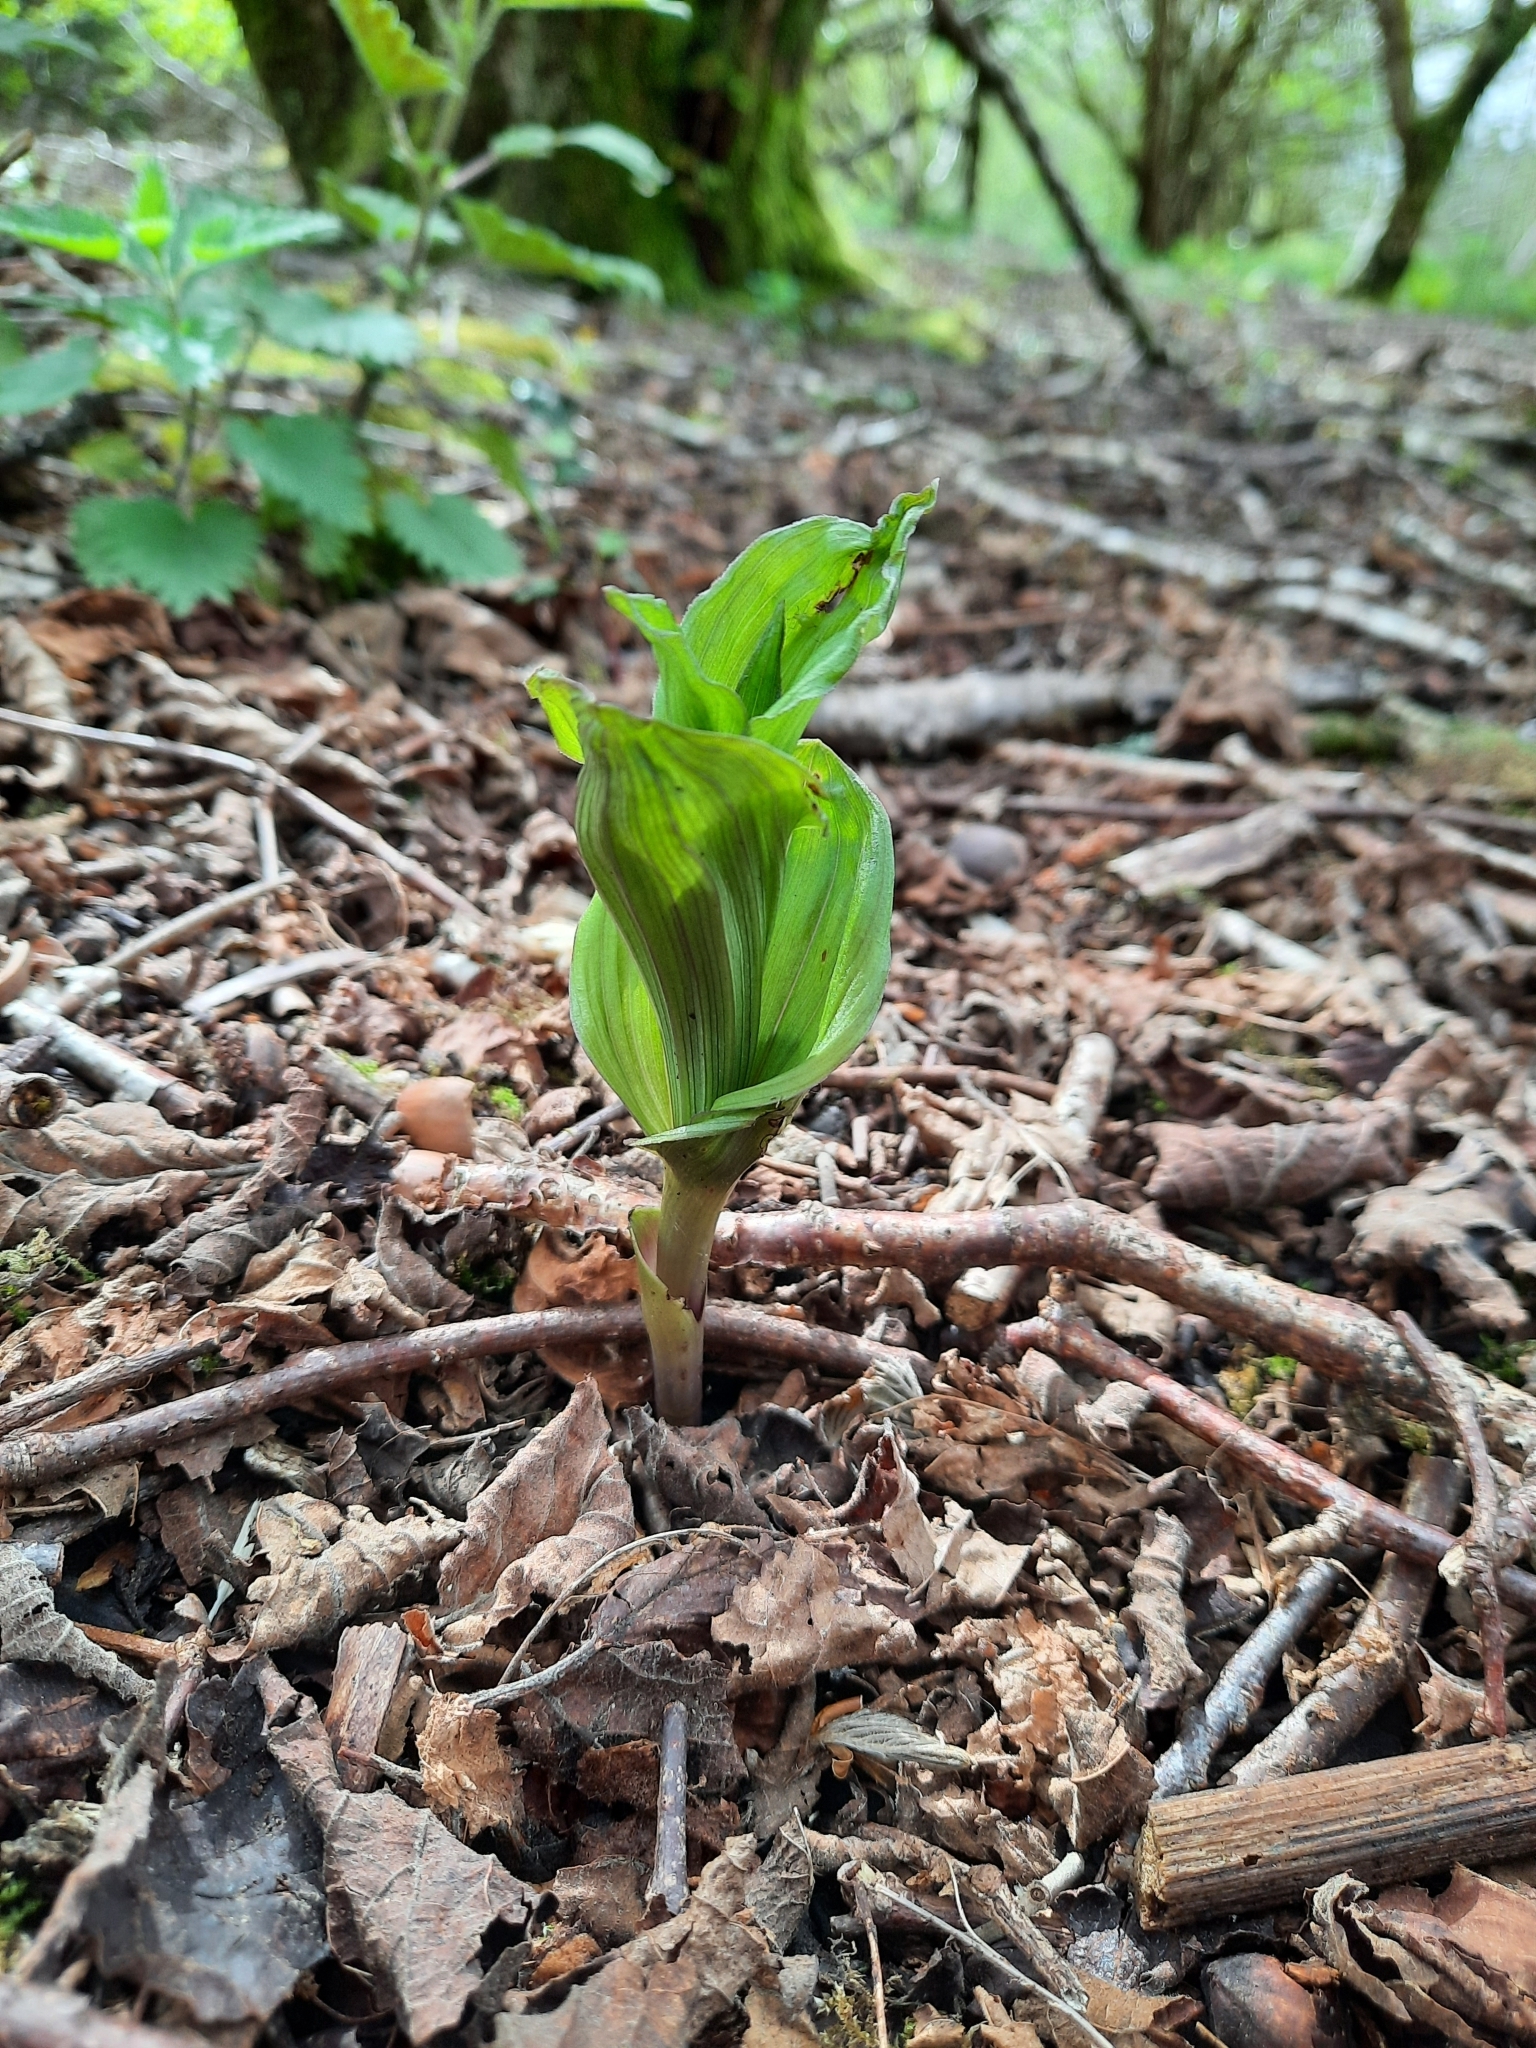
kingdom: Plantae
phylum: Tracheophyta
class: Liliopsida
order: Asparagales
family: Orchidaceae
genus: Epipactis
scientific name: Epipactis helleborine
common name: Broad-leaved helleborine
